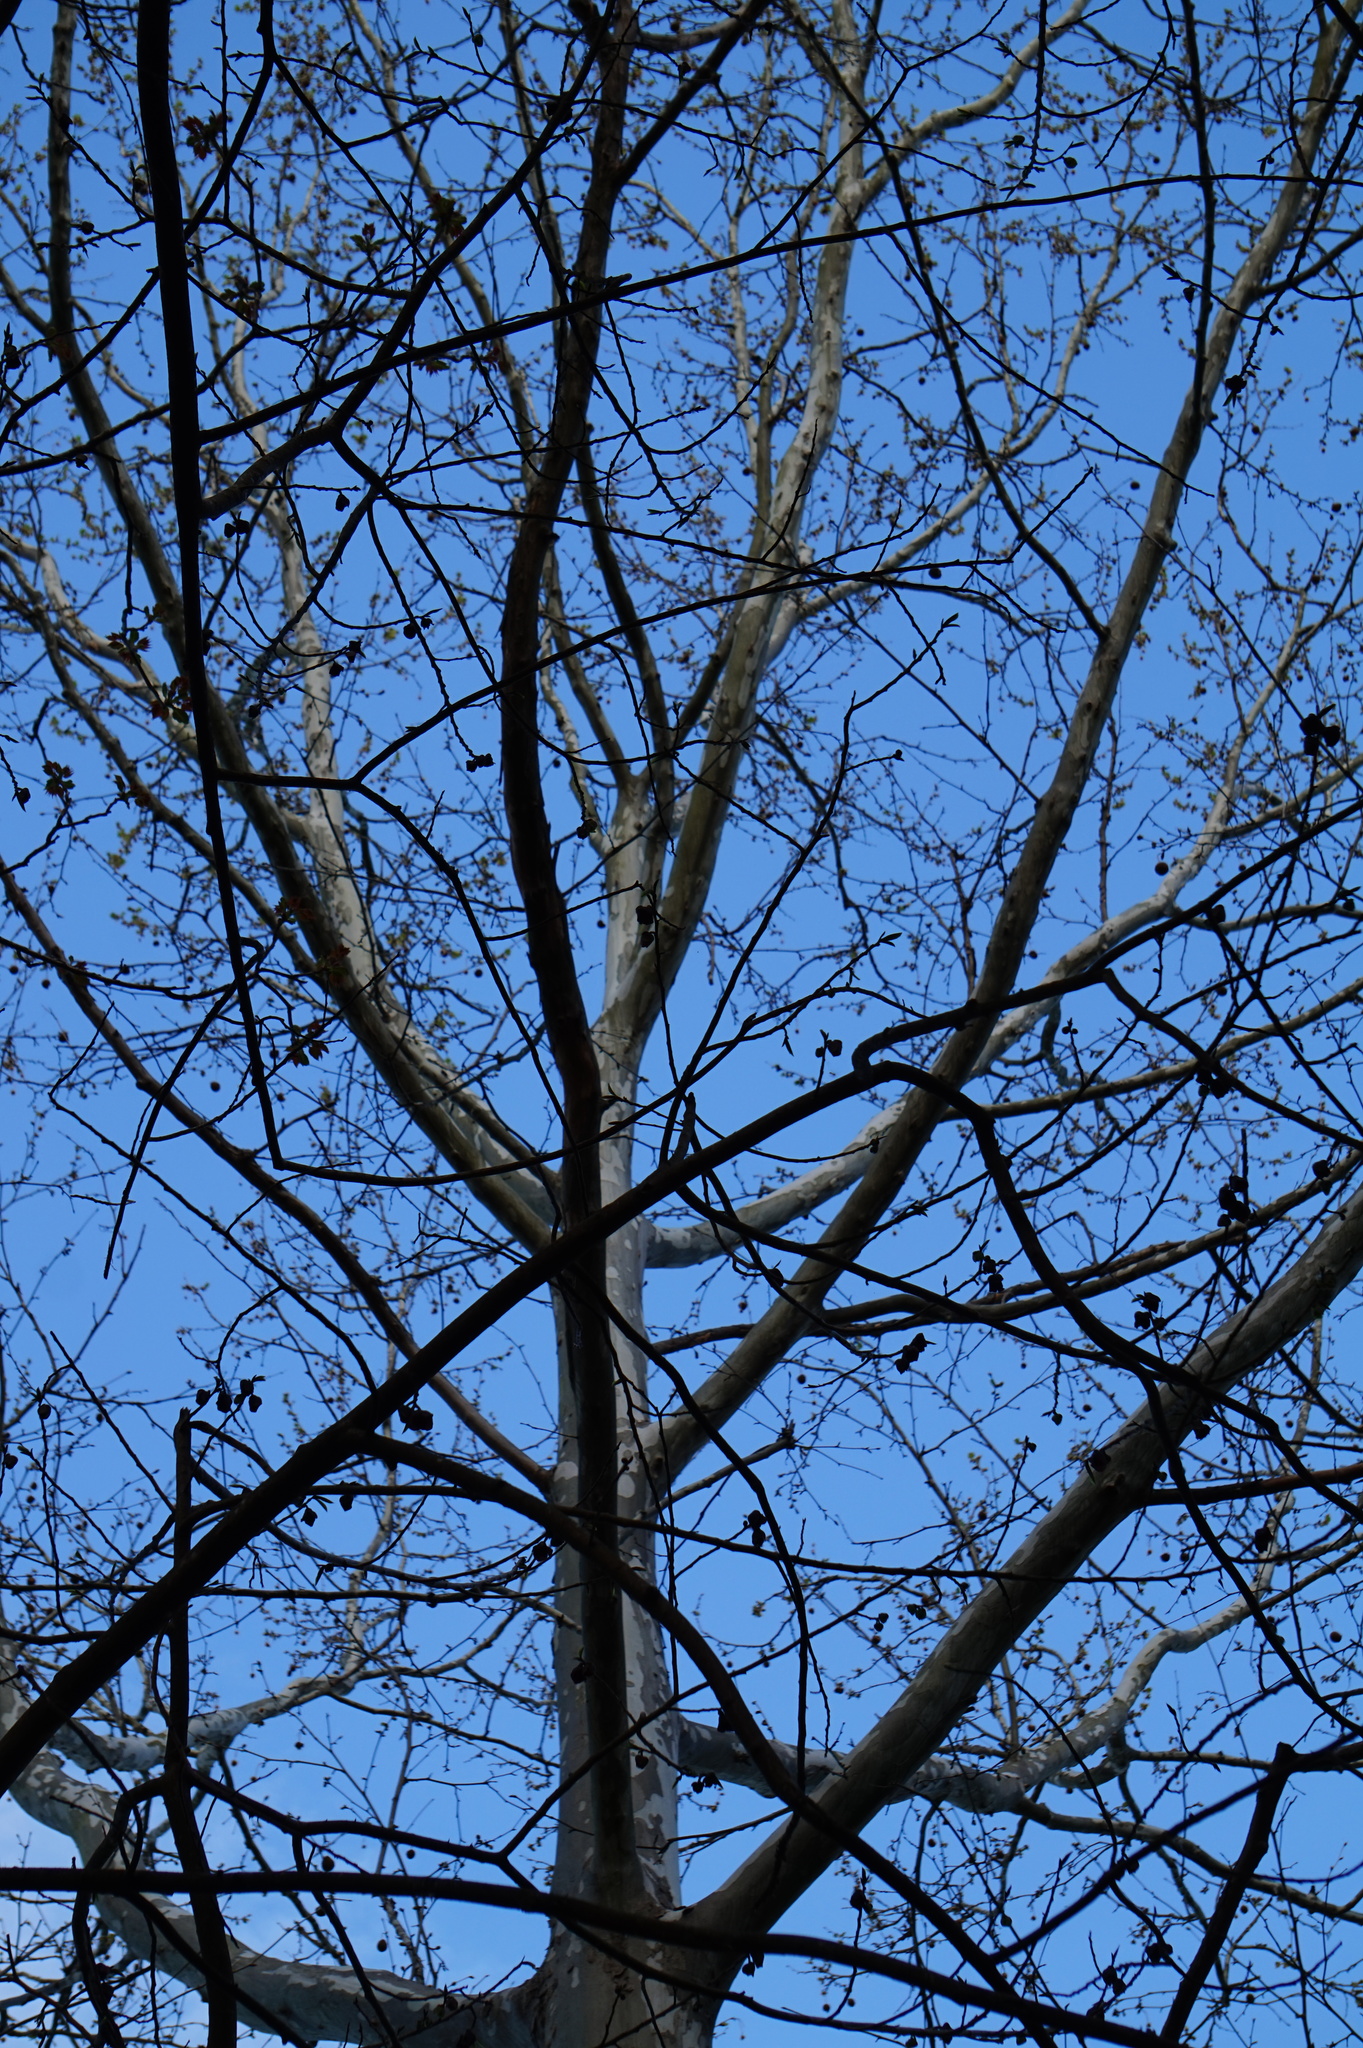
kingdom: Plantae
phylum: Tracheophyta
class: Magnoliopsida
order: Proteales
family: Platanaceae
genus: Platanus
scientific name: Platanus occidentalis
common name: American sycamore
